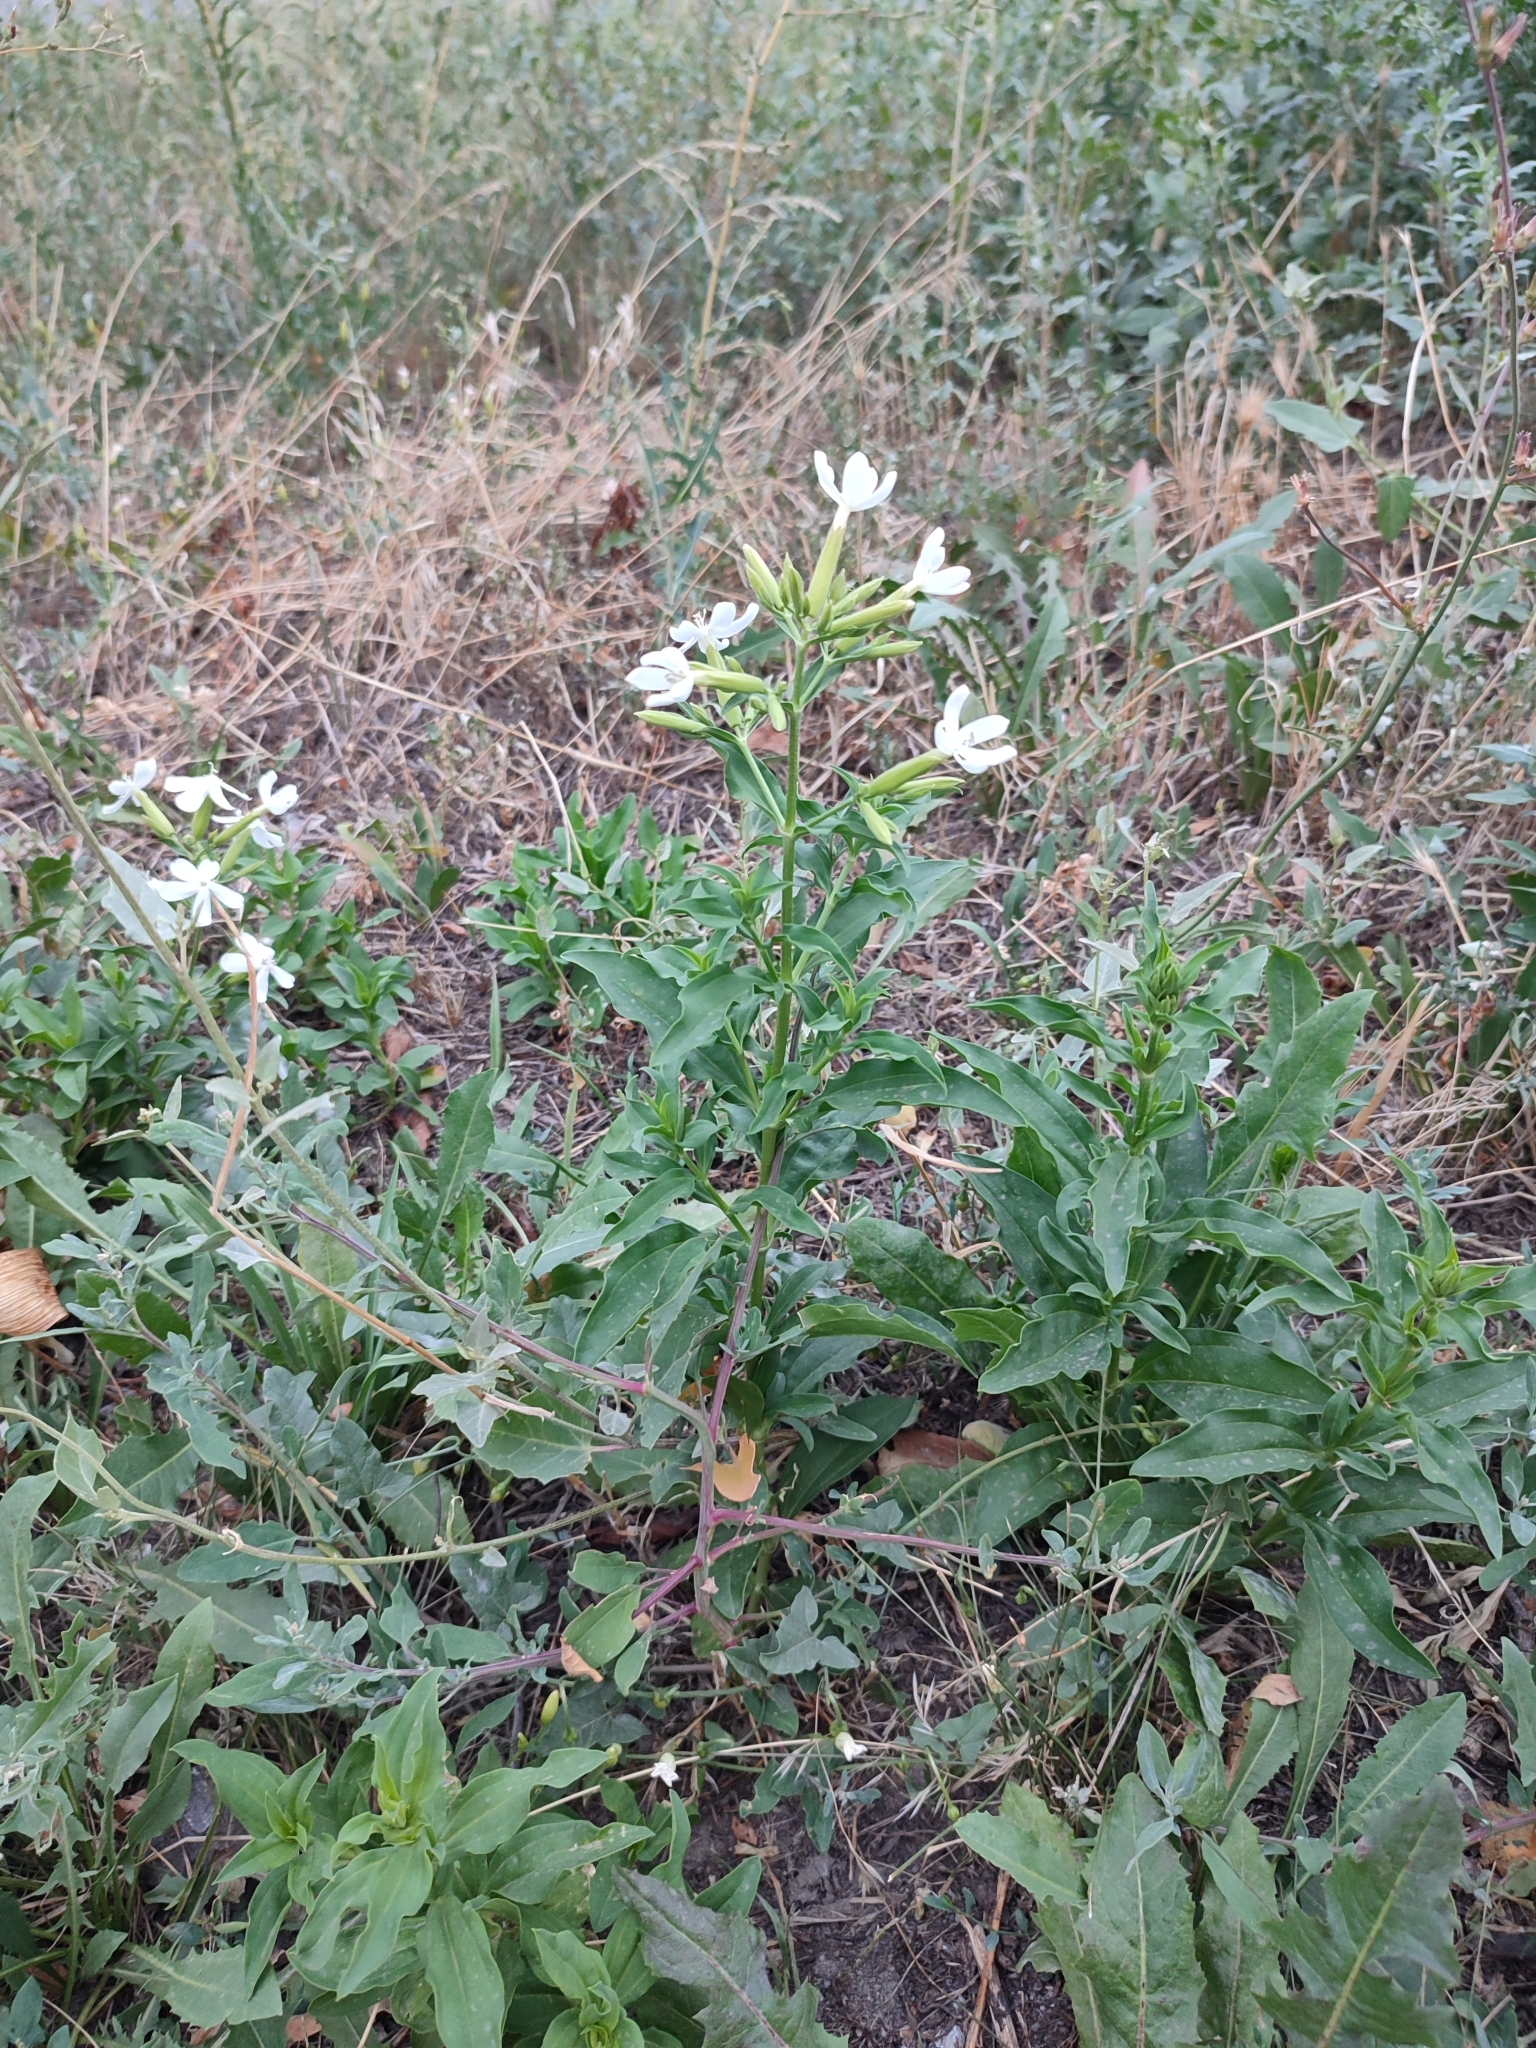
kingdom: Plantae
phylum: Tracheophyta
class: Magnoliopsida
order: Caryophyllales
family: Caryophyllaceae
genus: Saponaria
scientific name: Saponaria officinalis
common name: Soapwort
